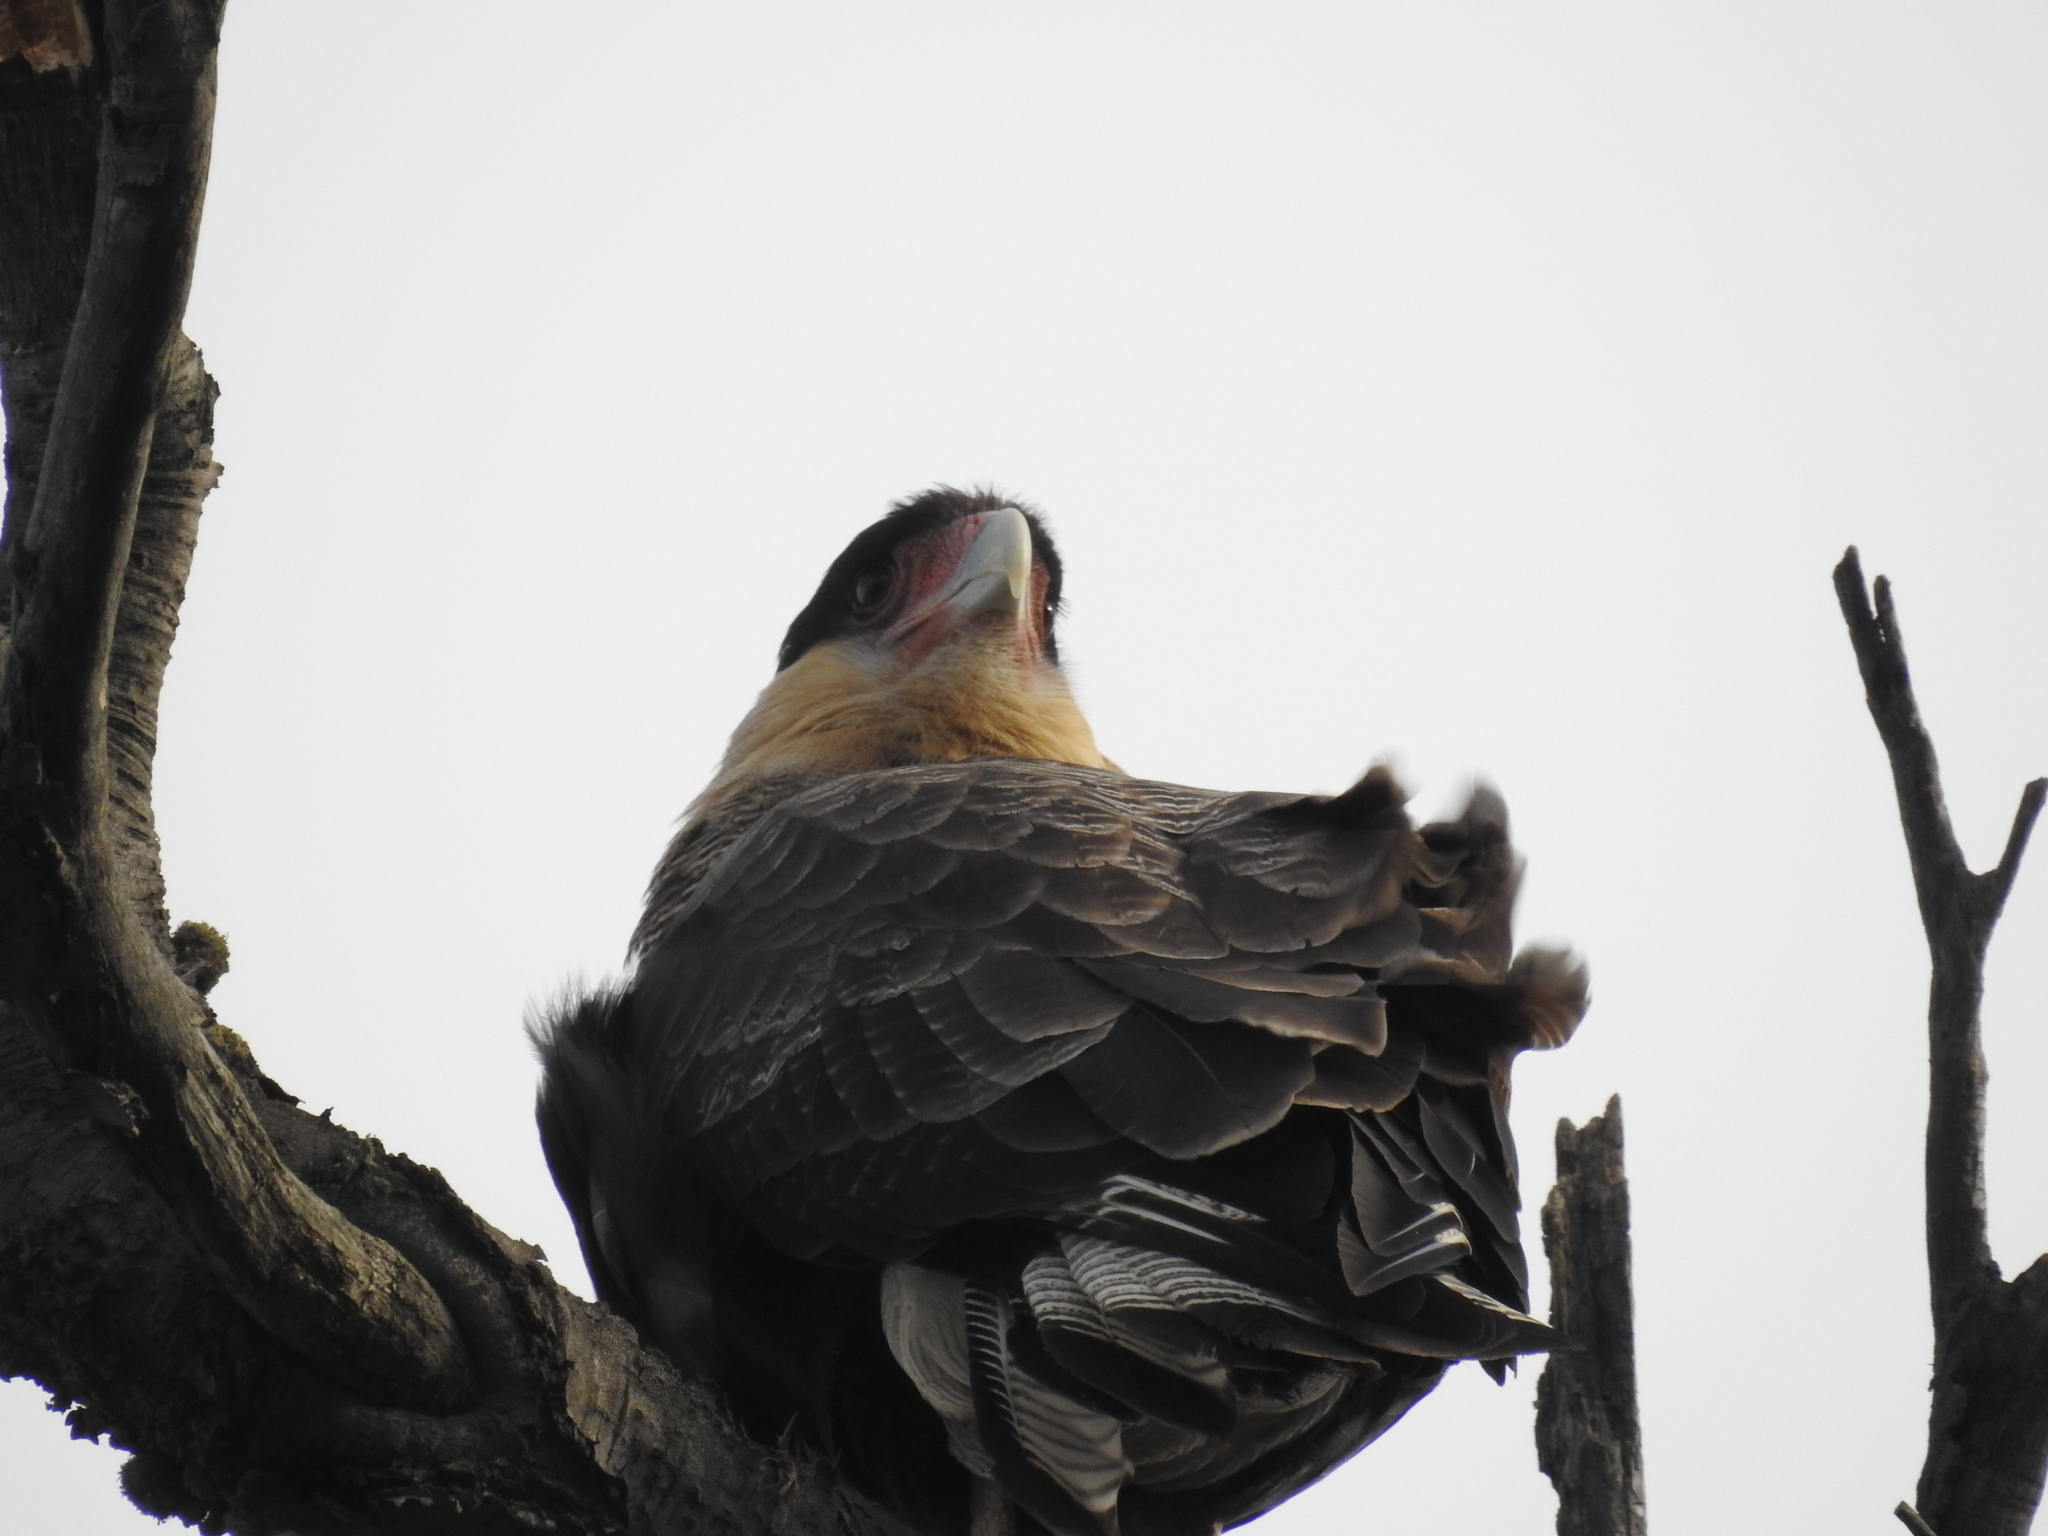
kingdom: Animalia
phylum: Chordata
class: Aves
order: Falconiformes
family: Falconidae
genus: Caracara
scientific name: Caracara plancus
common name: Southern caracara
